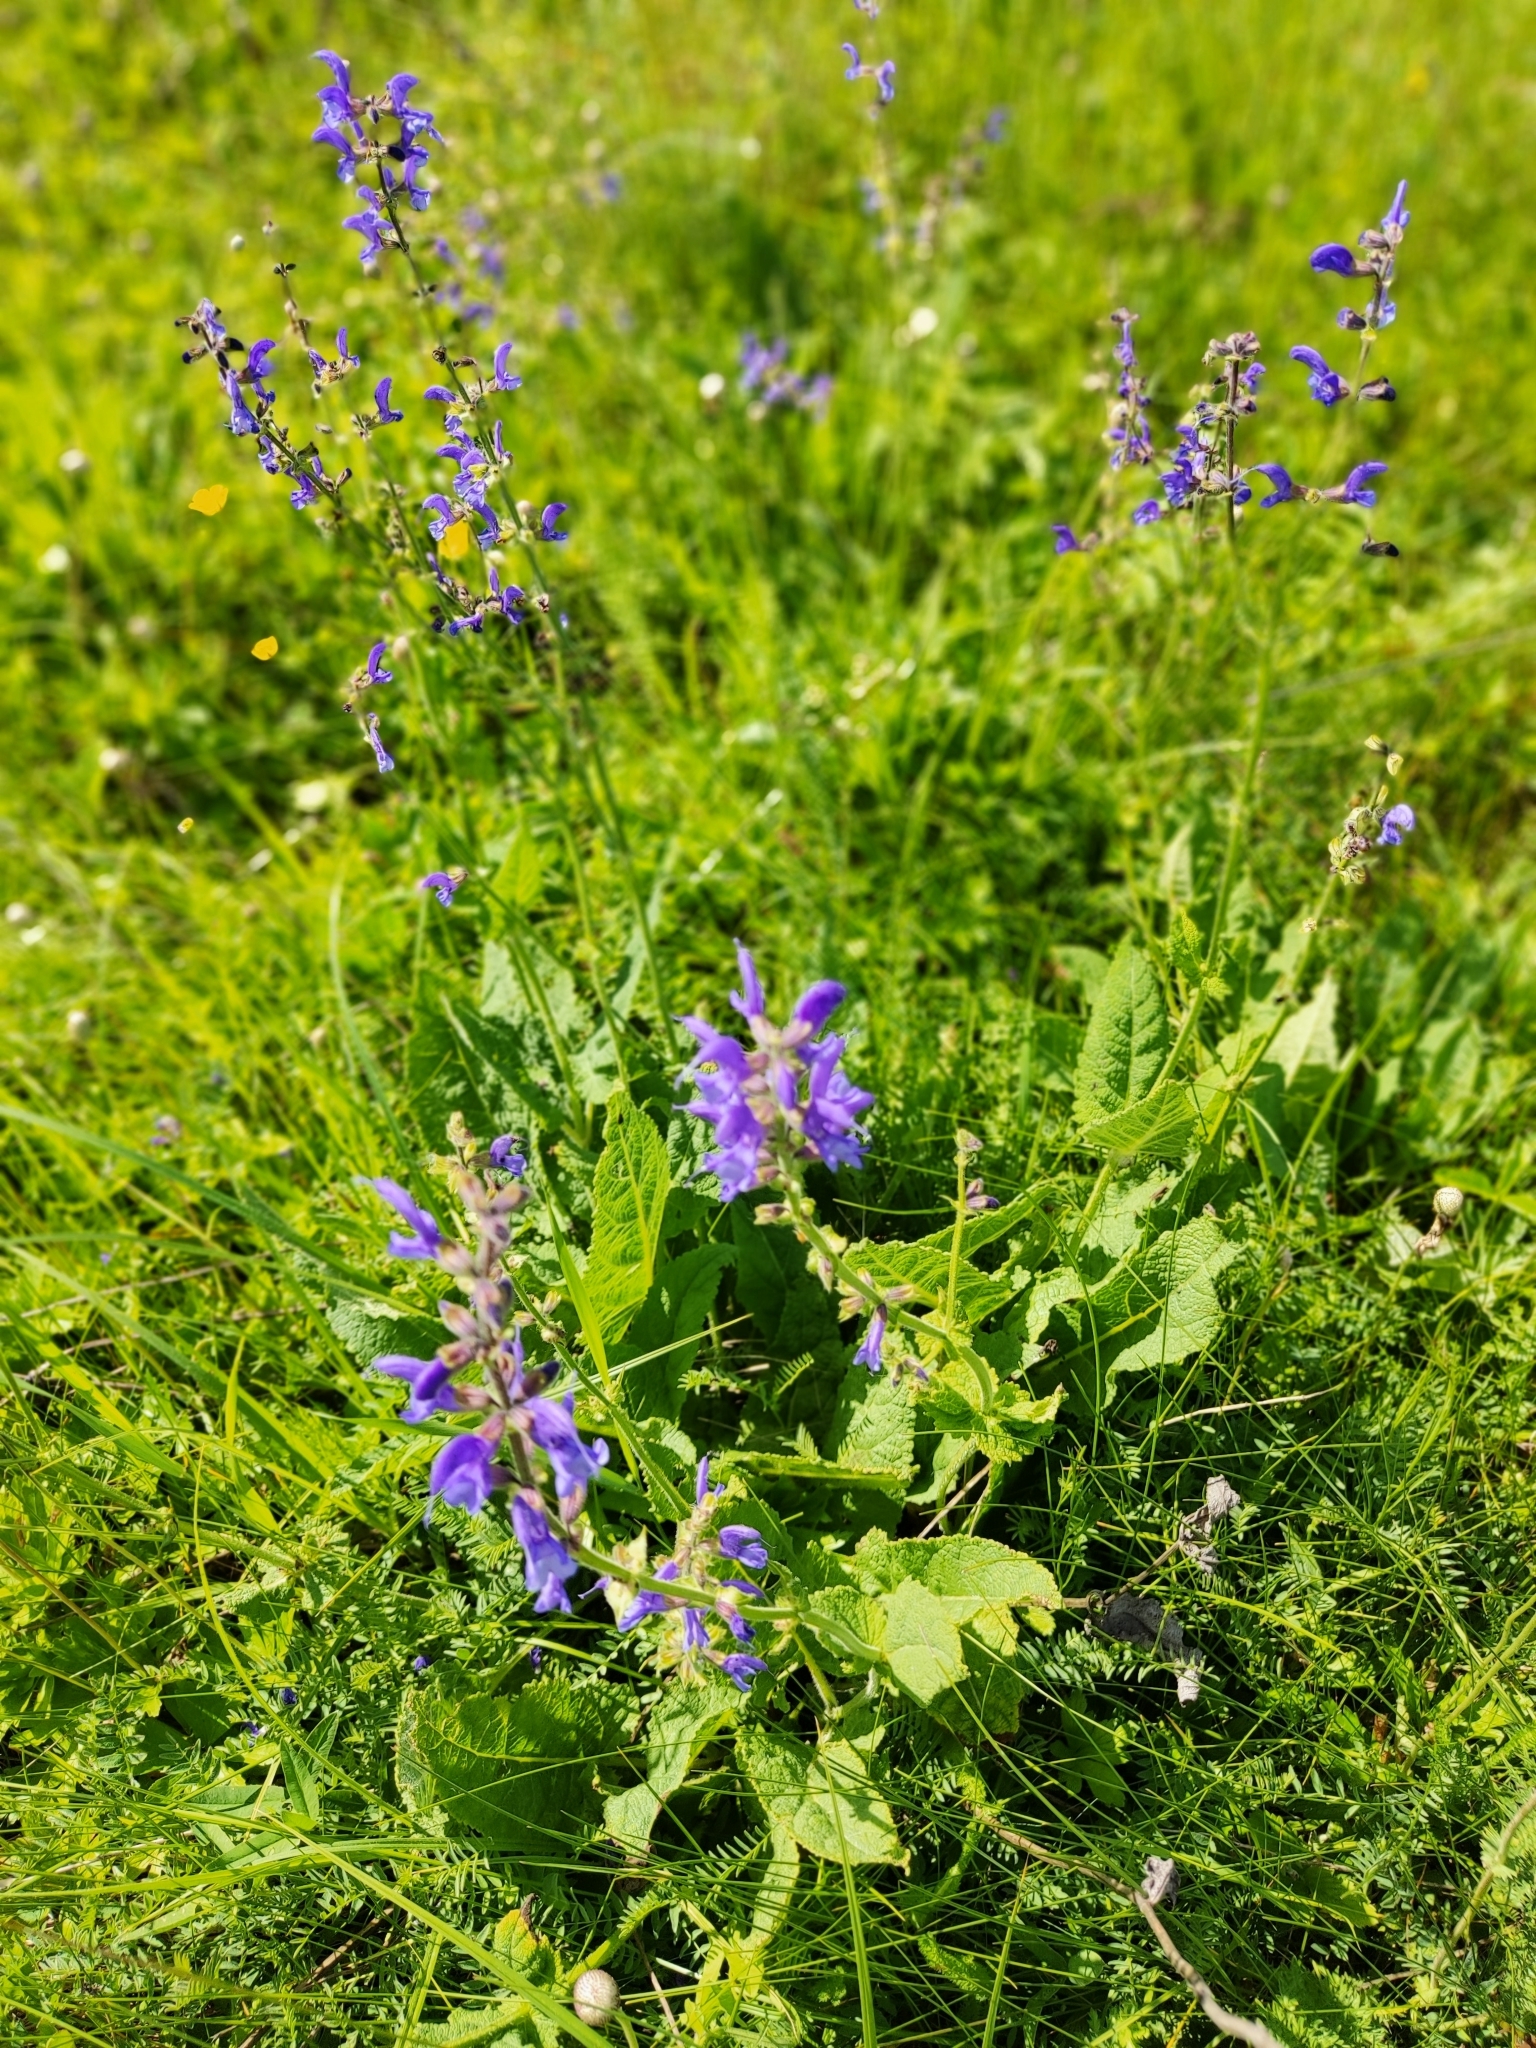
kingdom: Plantae
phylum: Tracheophyta
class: Magnoliopsida
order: Lamiales
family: Lamiaceae
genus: Salvia
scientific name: Salvia pratensis
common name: Meadow sage
